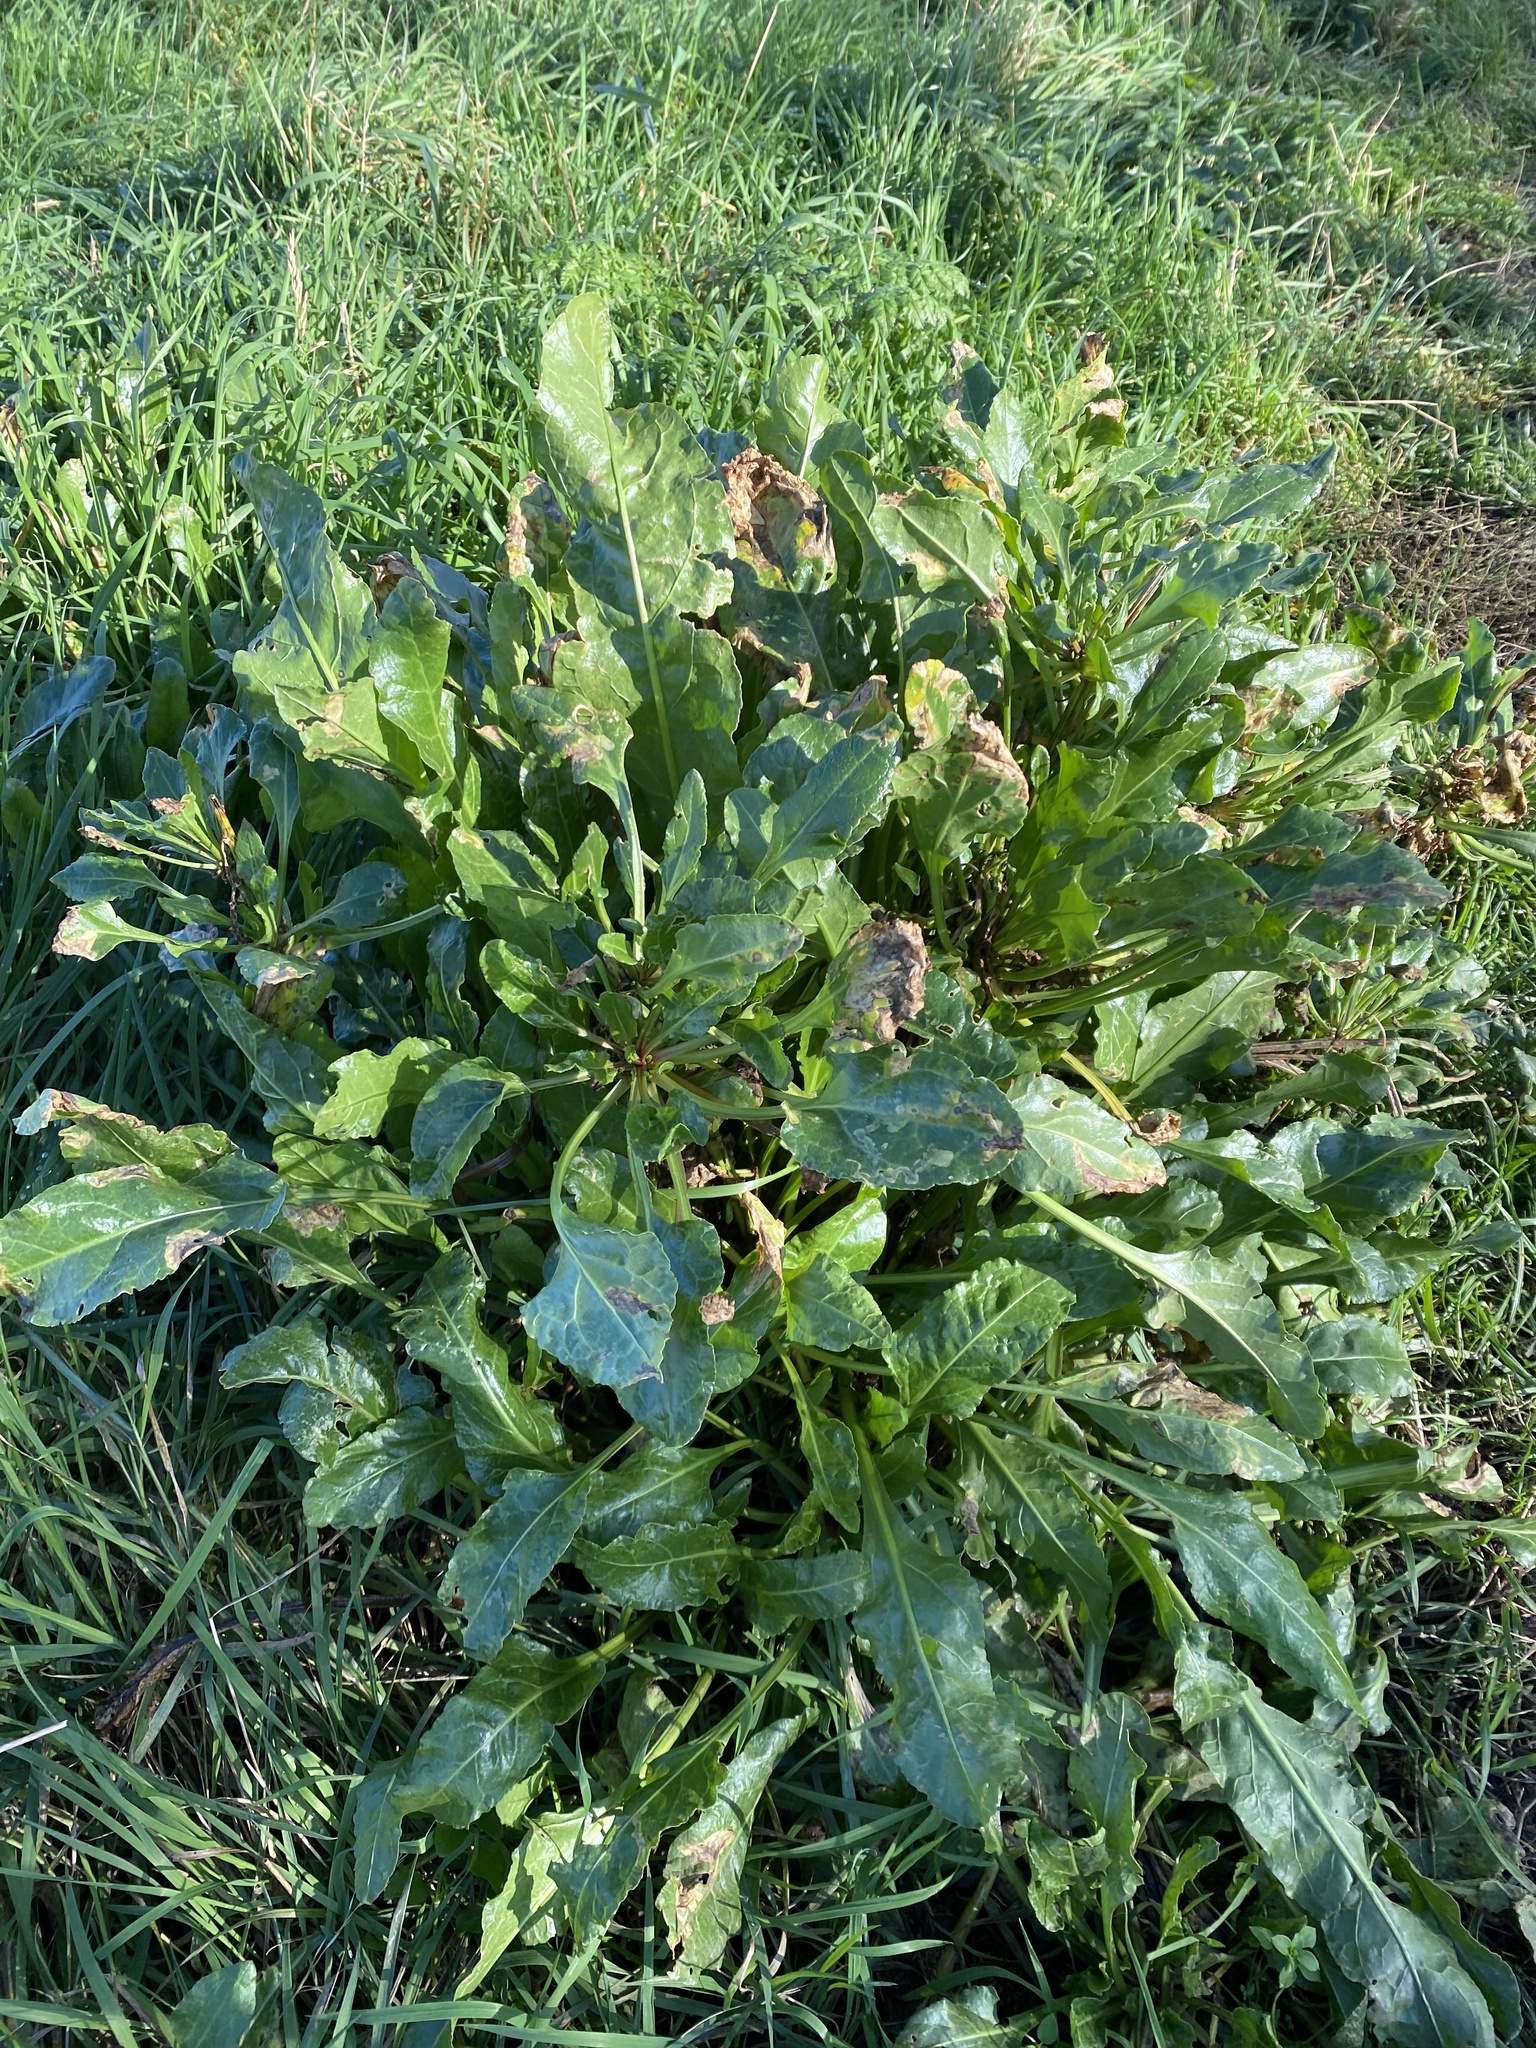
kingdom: Plantae
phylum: Tracheophyta
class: Magnoliopsida
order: Caryophyllales
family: Amaranthaceae
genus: Beta
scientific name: Beta vulgaris
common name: Beet
